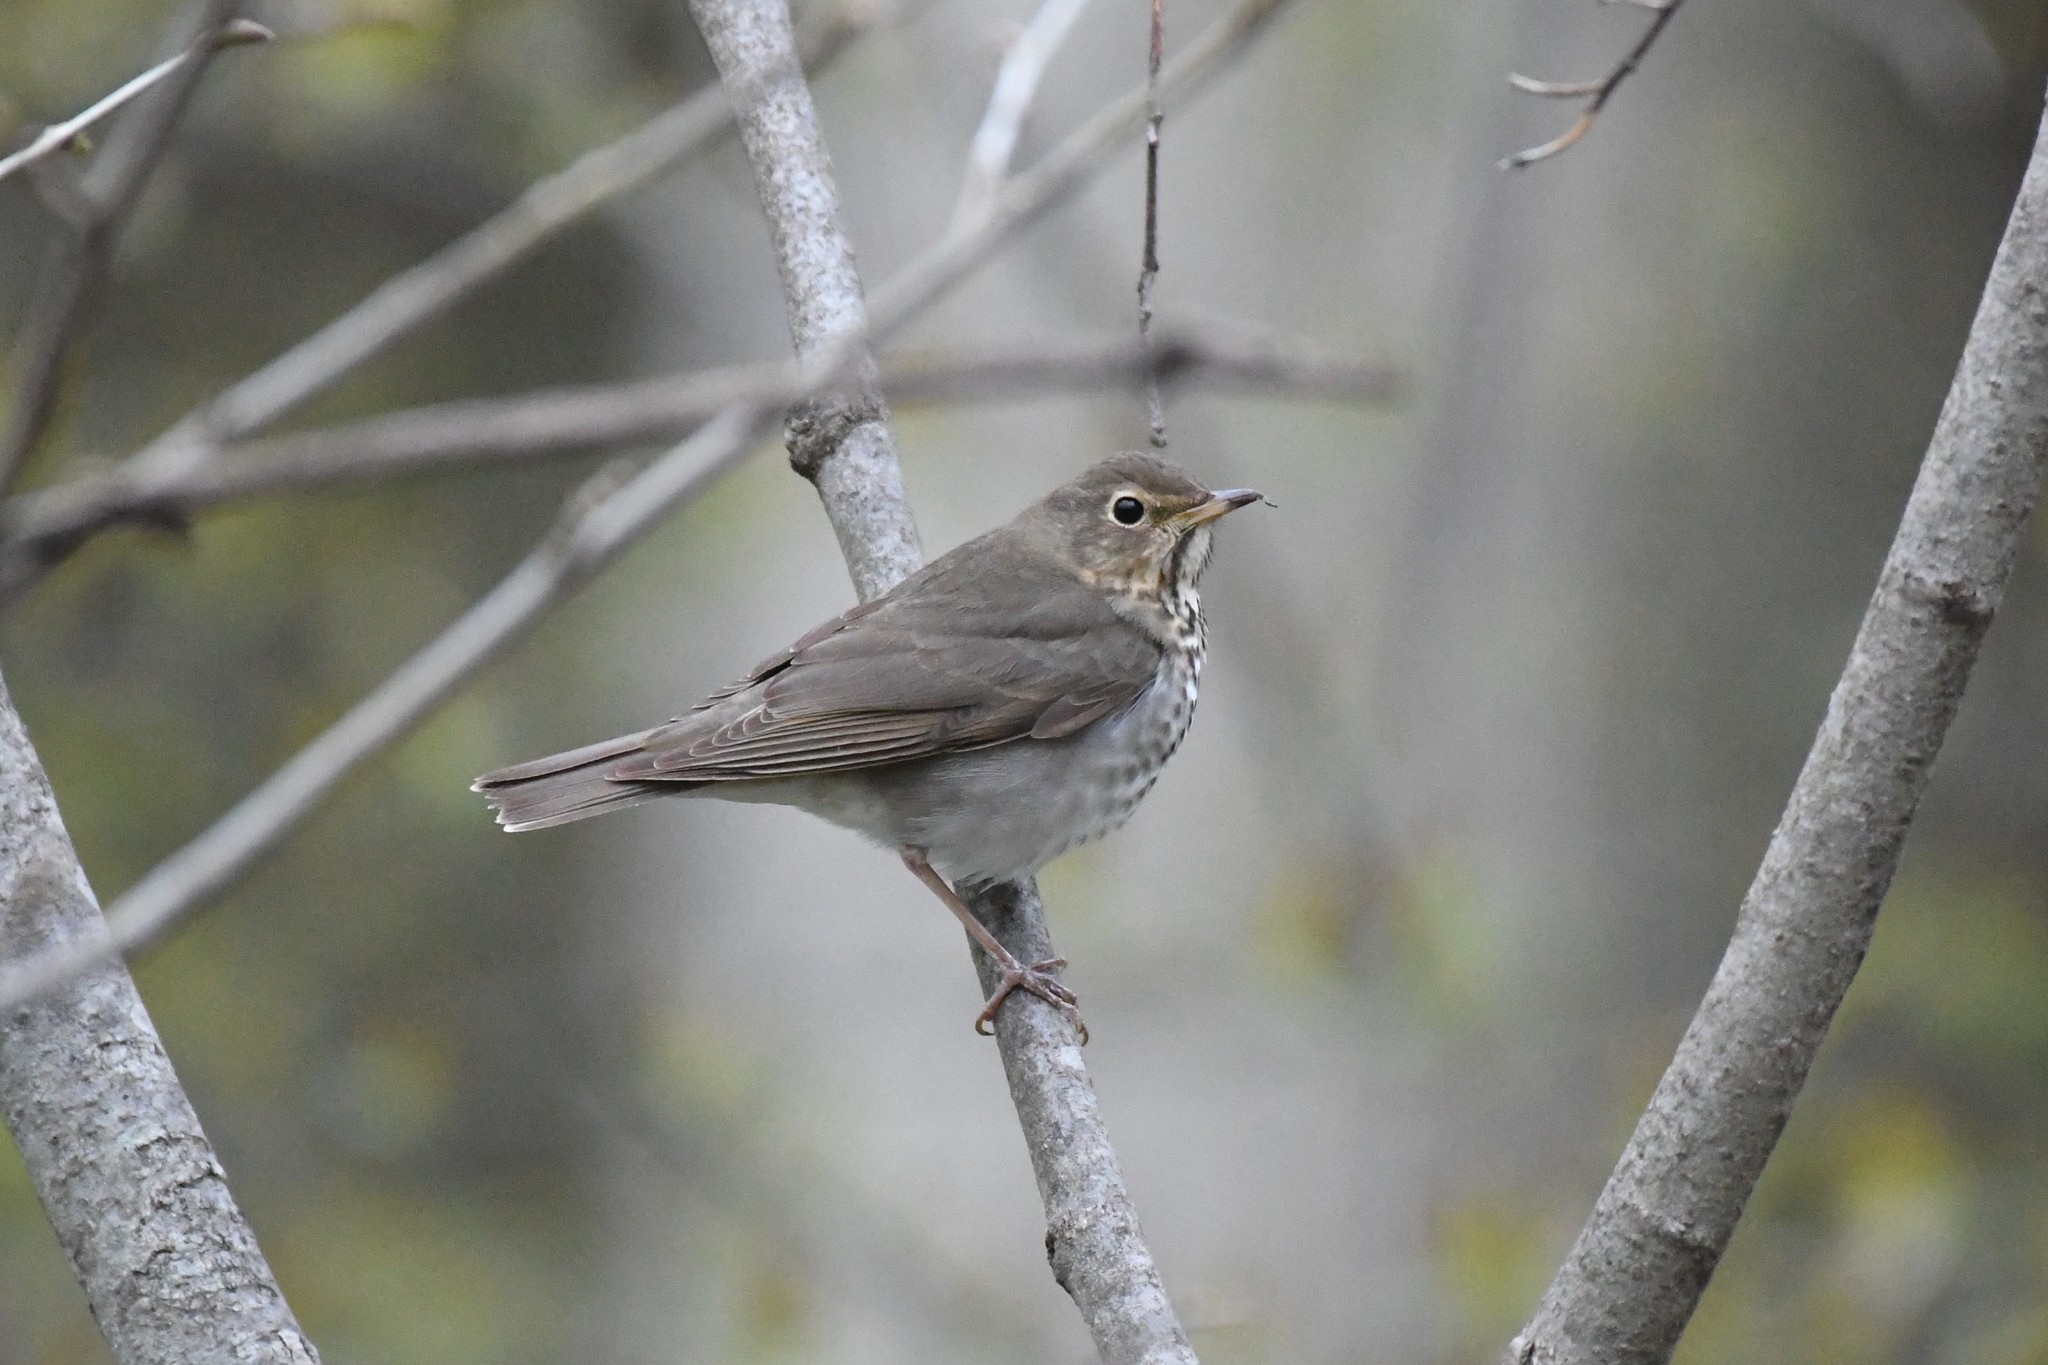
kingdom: Animalia
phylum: Chordata
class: Aves
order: Passeriformes
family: Turdidae
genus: Catharus
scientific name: Catharus ustulatus
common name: Swainson's thrush
